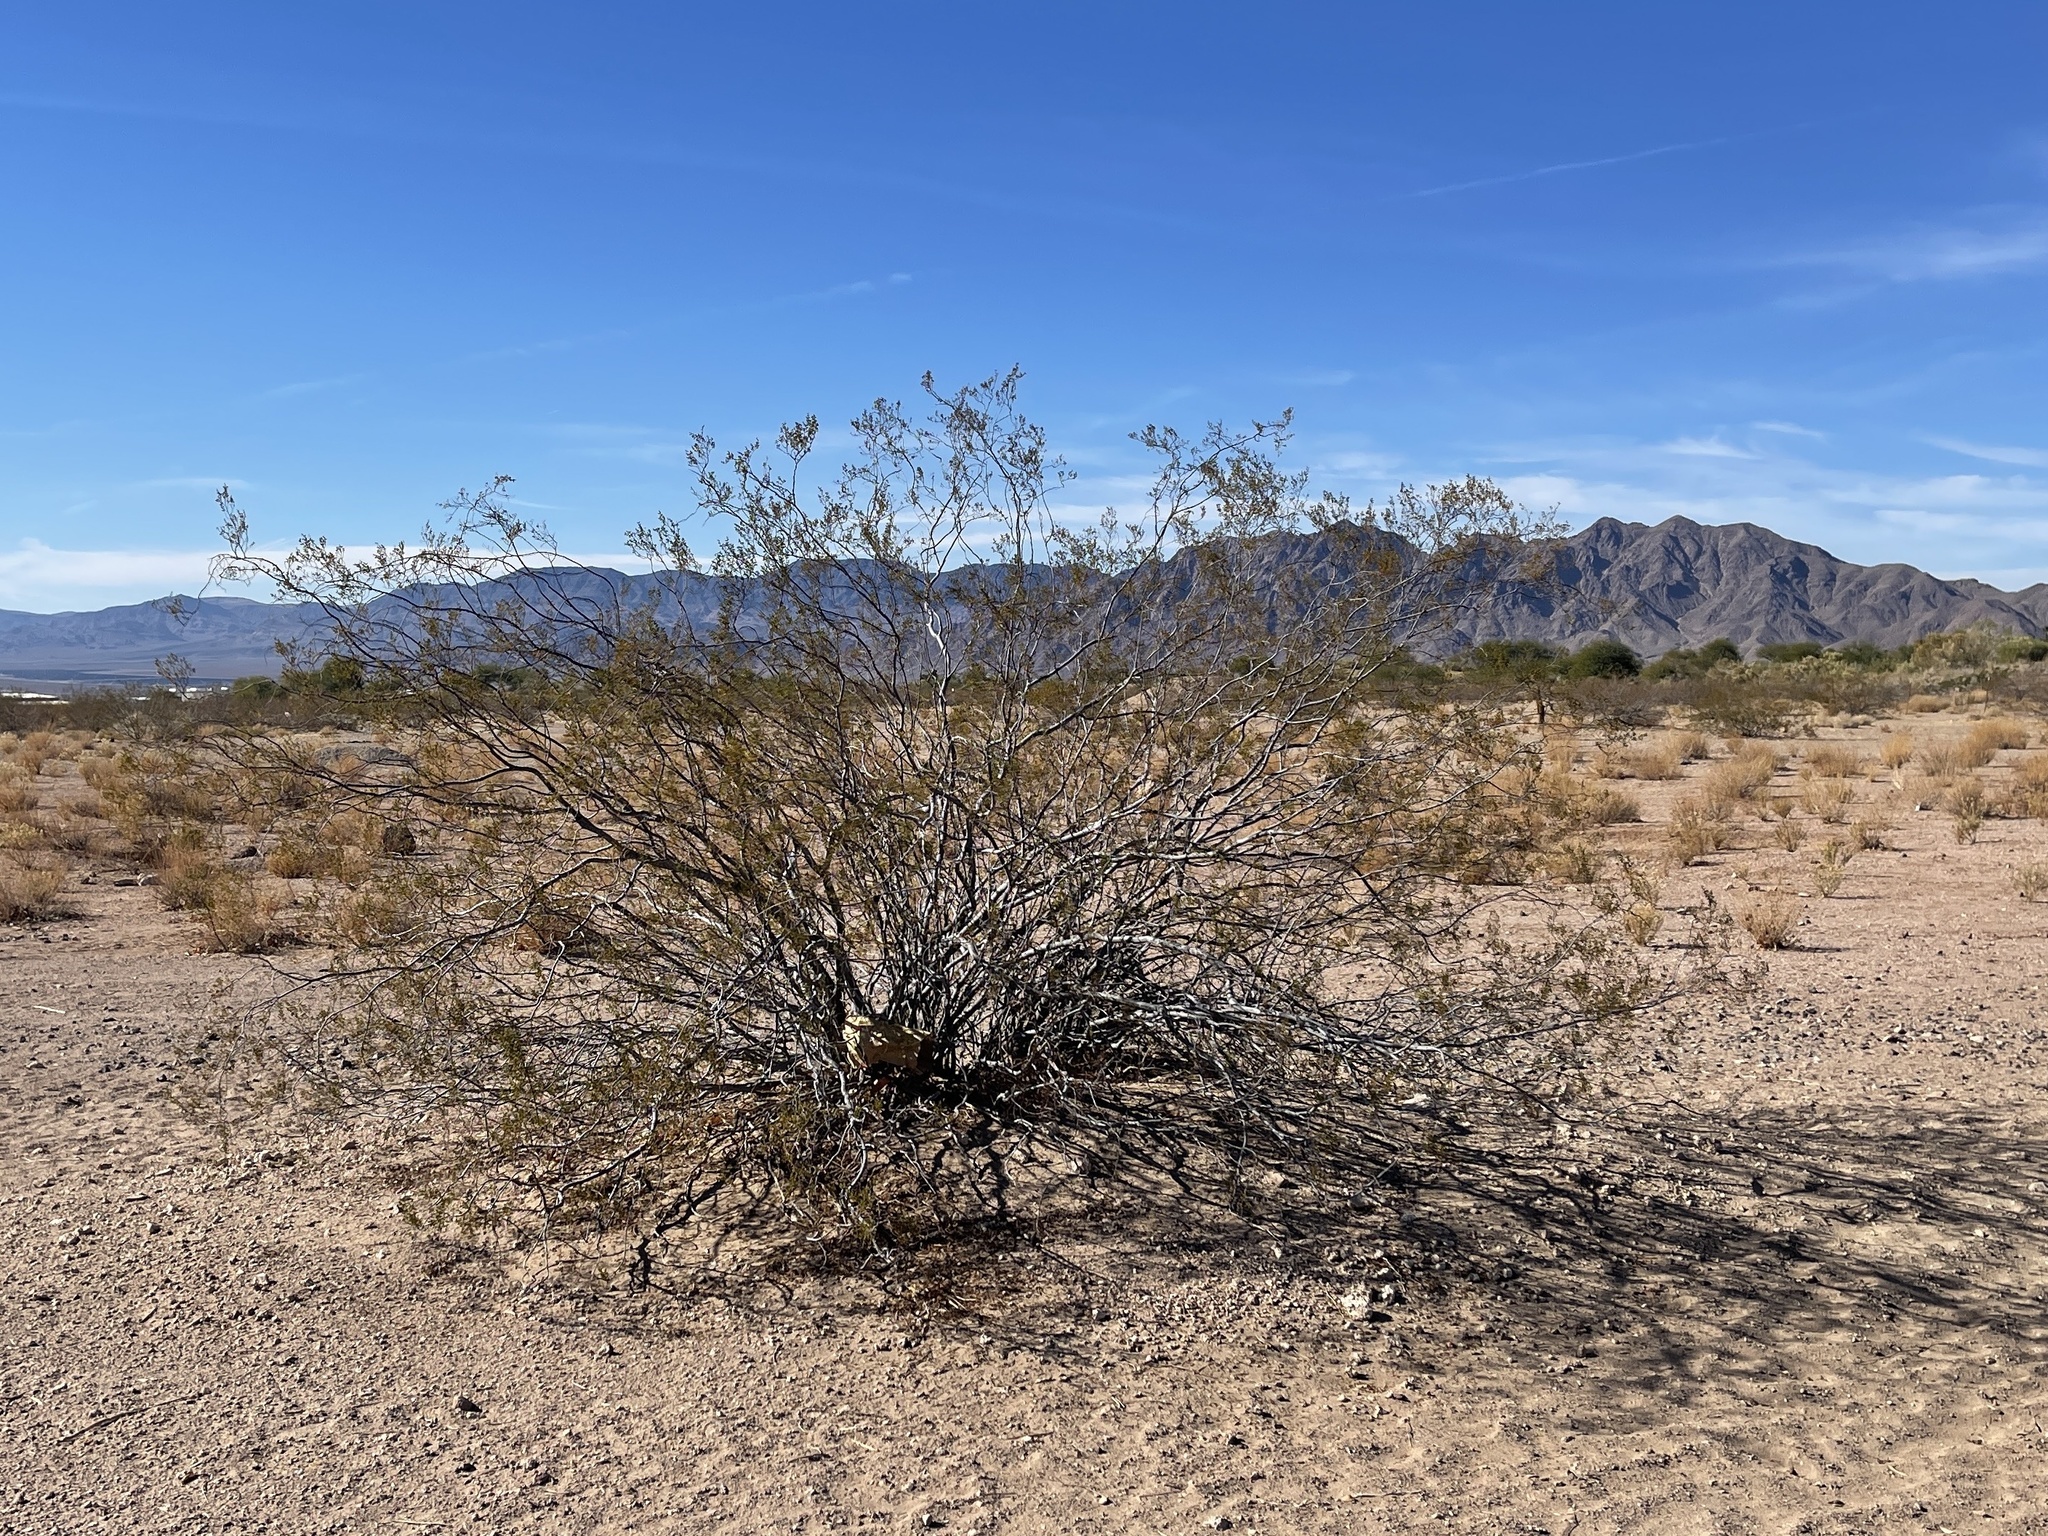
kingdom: Plantae
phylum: Tracheophyta
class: Magnoliopsida
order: Zygophyllales
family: Zygophyllaceae
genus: Larrea
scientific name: Larrea tridentata
